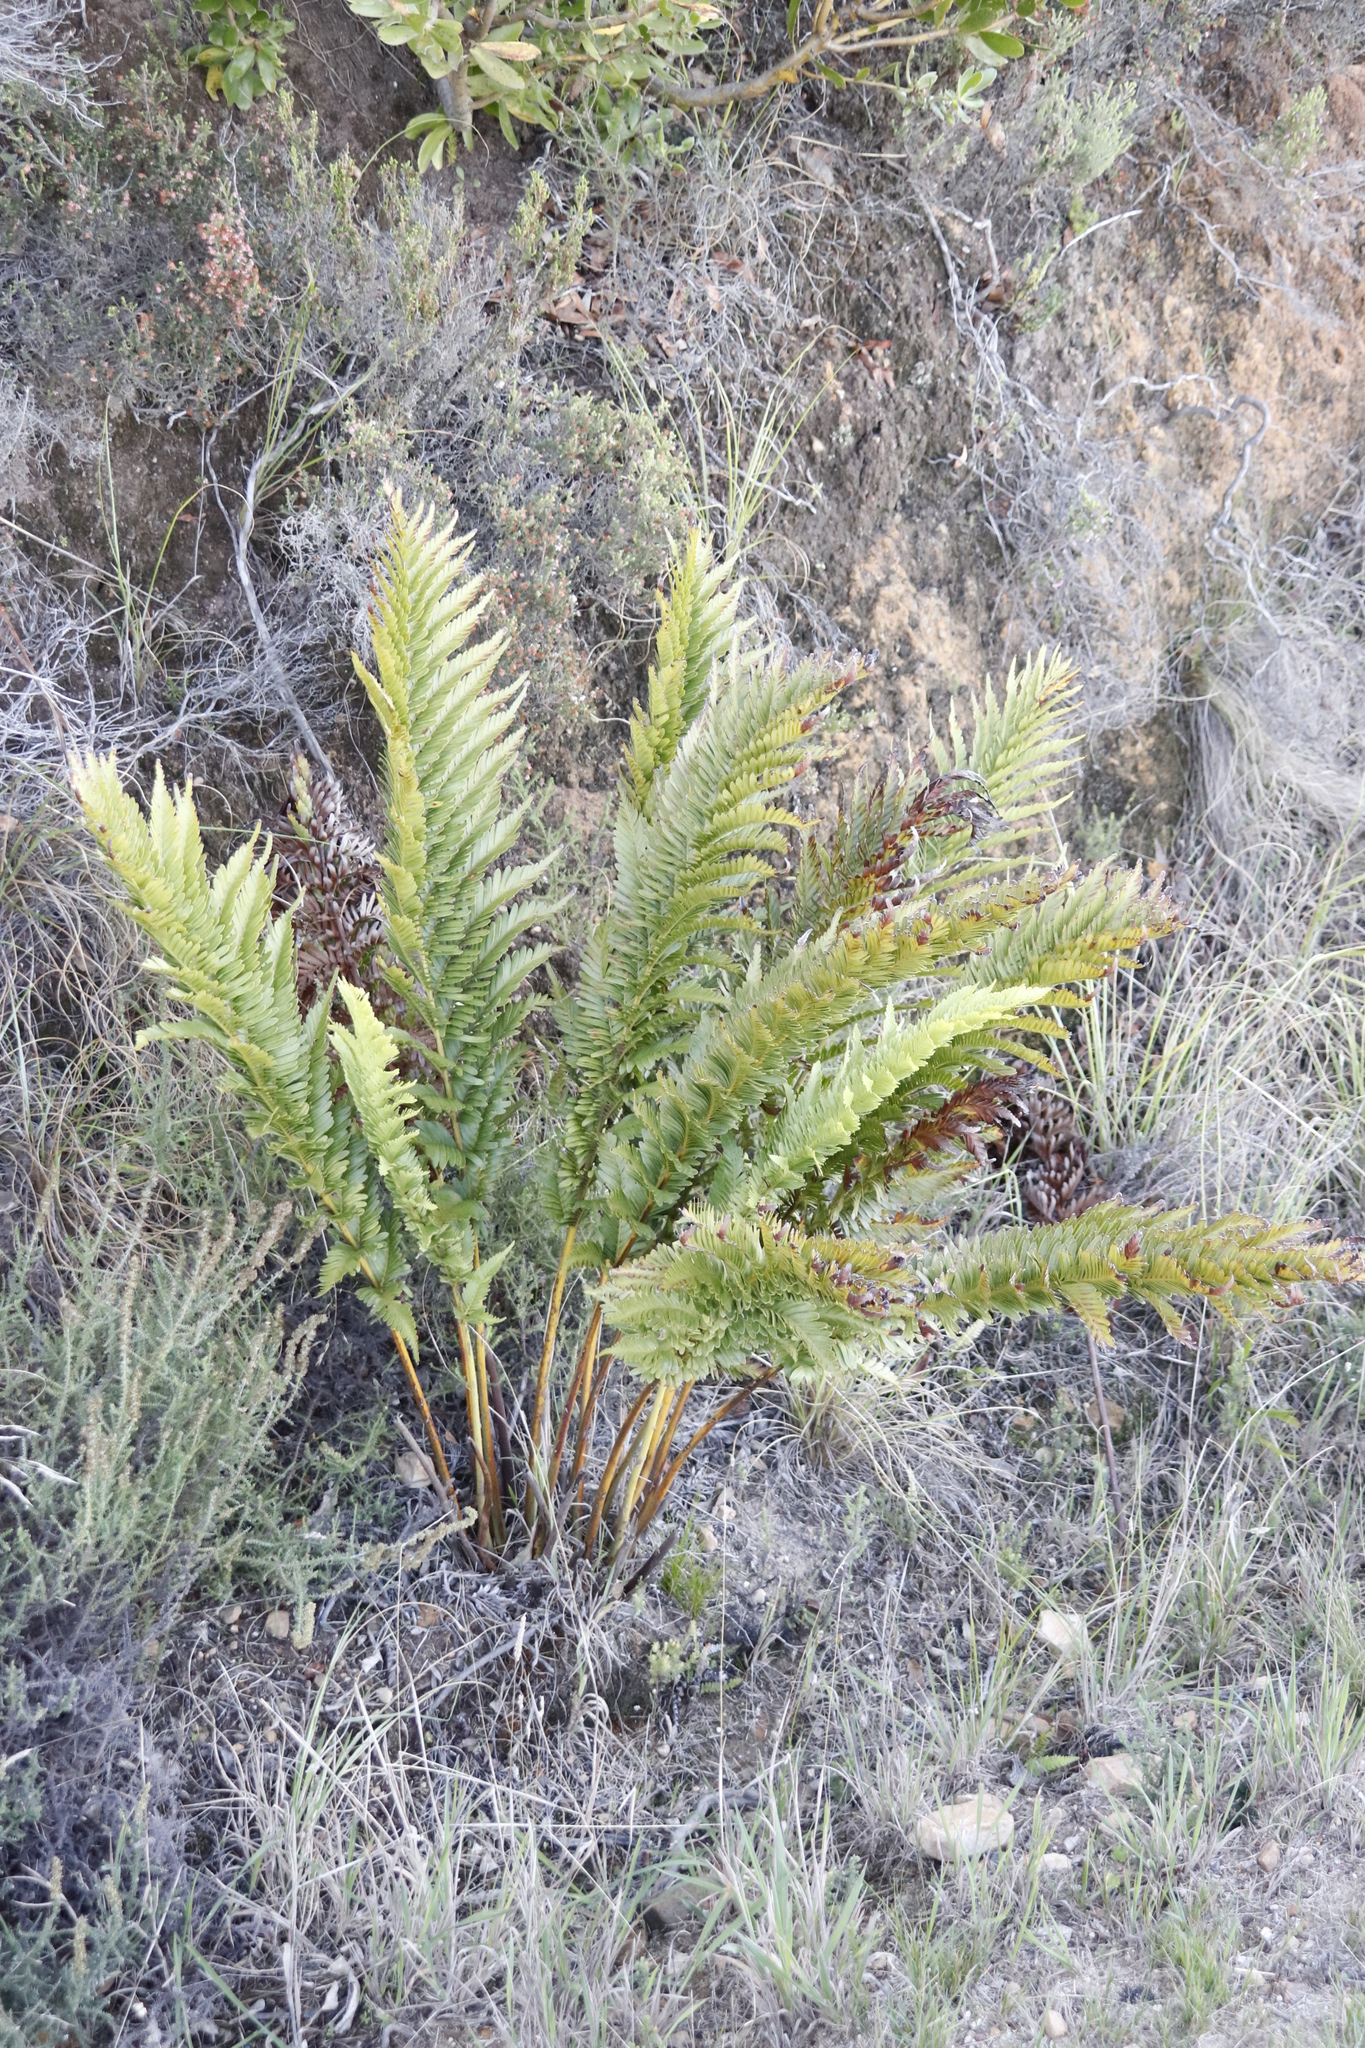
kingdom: Plantae
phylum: Tracheophyta
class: Polypodiopsida
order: Osmundales
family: Osmundaceae
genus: Todea
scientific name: Todea barbara
